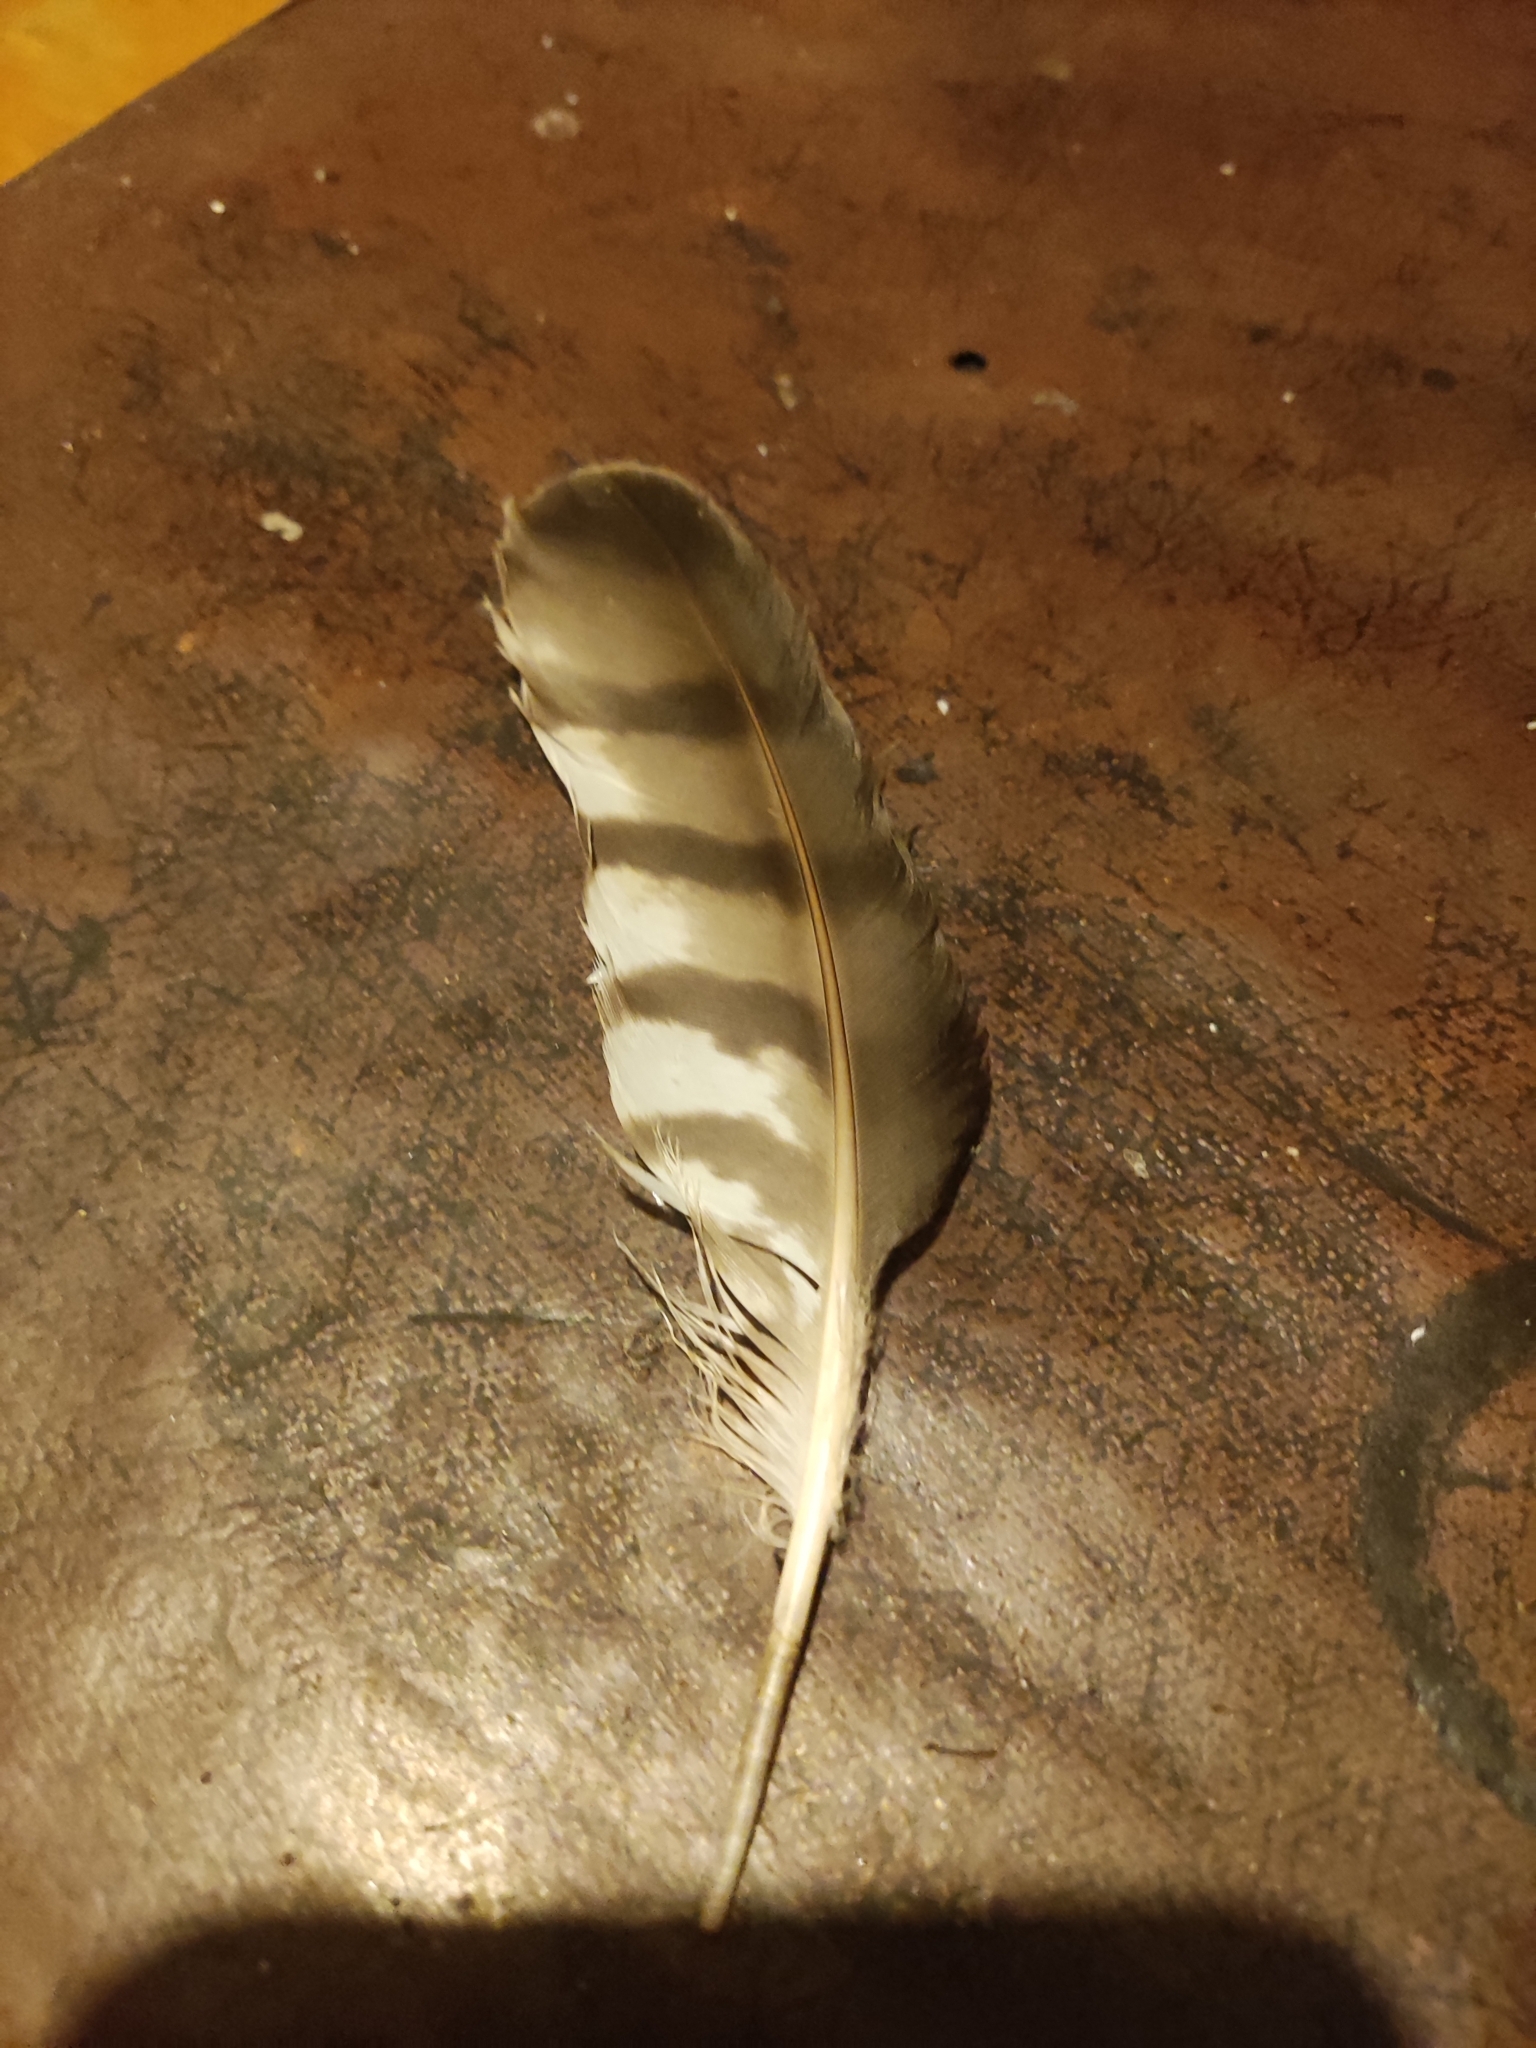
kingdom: Animalia
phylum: Chordata
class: Aves
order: Accipitriformes
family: Accipitridae
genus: Accipiter
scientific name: Accipiter nisus
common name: Eurasian sparrowhawk
